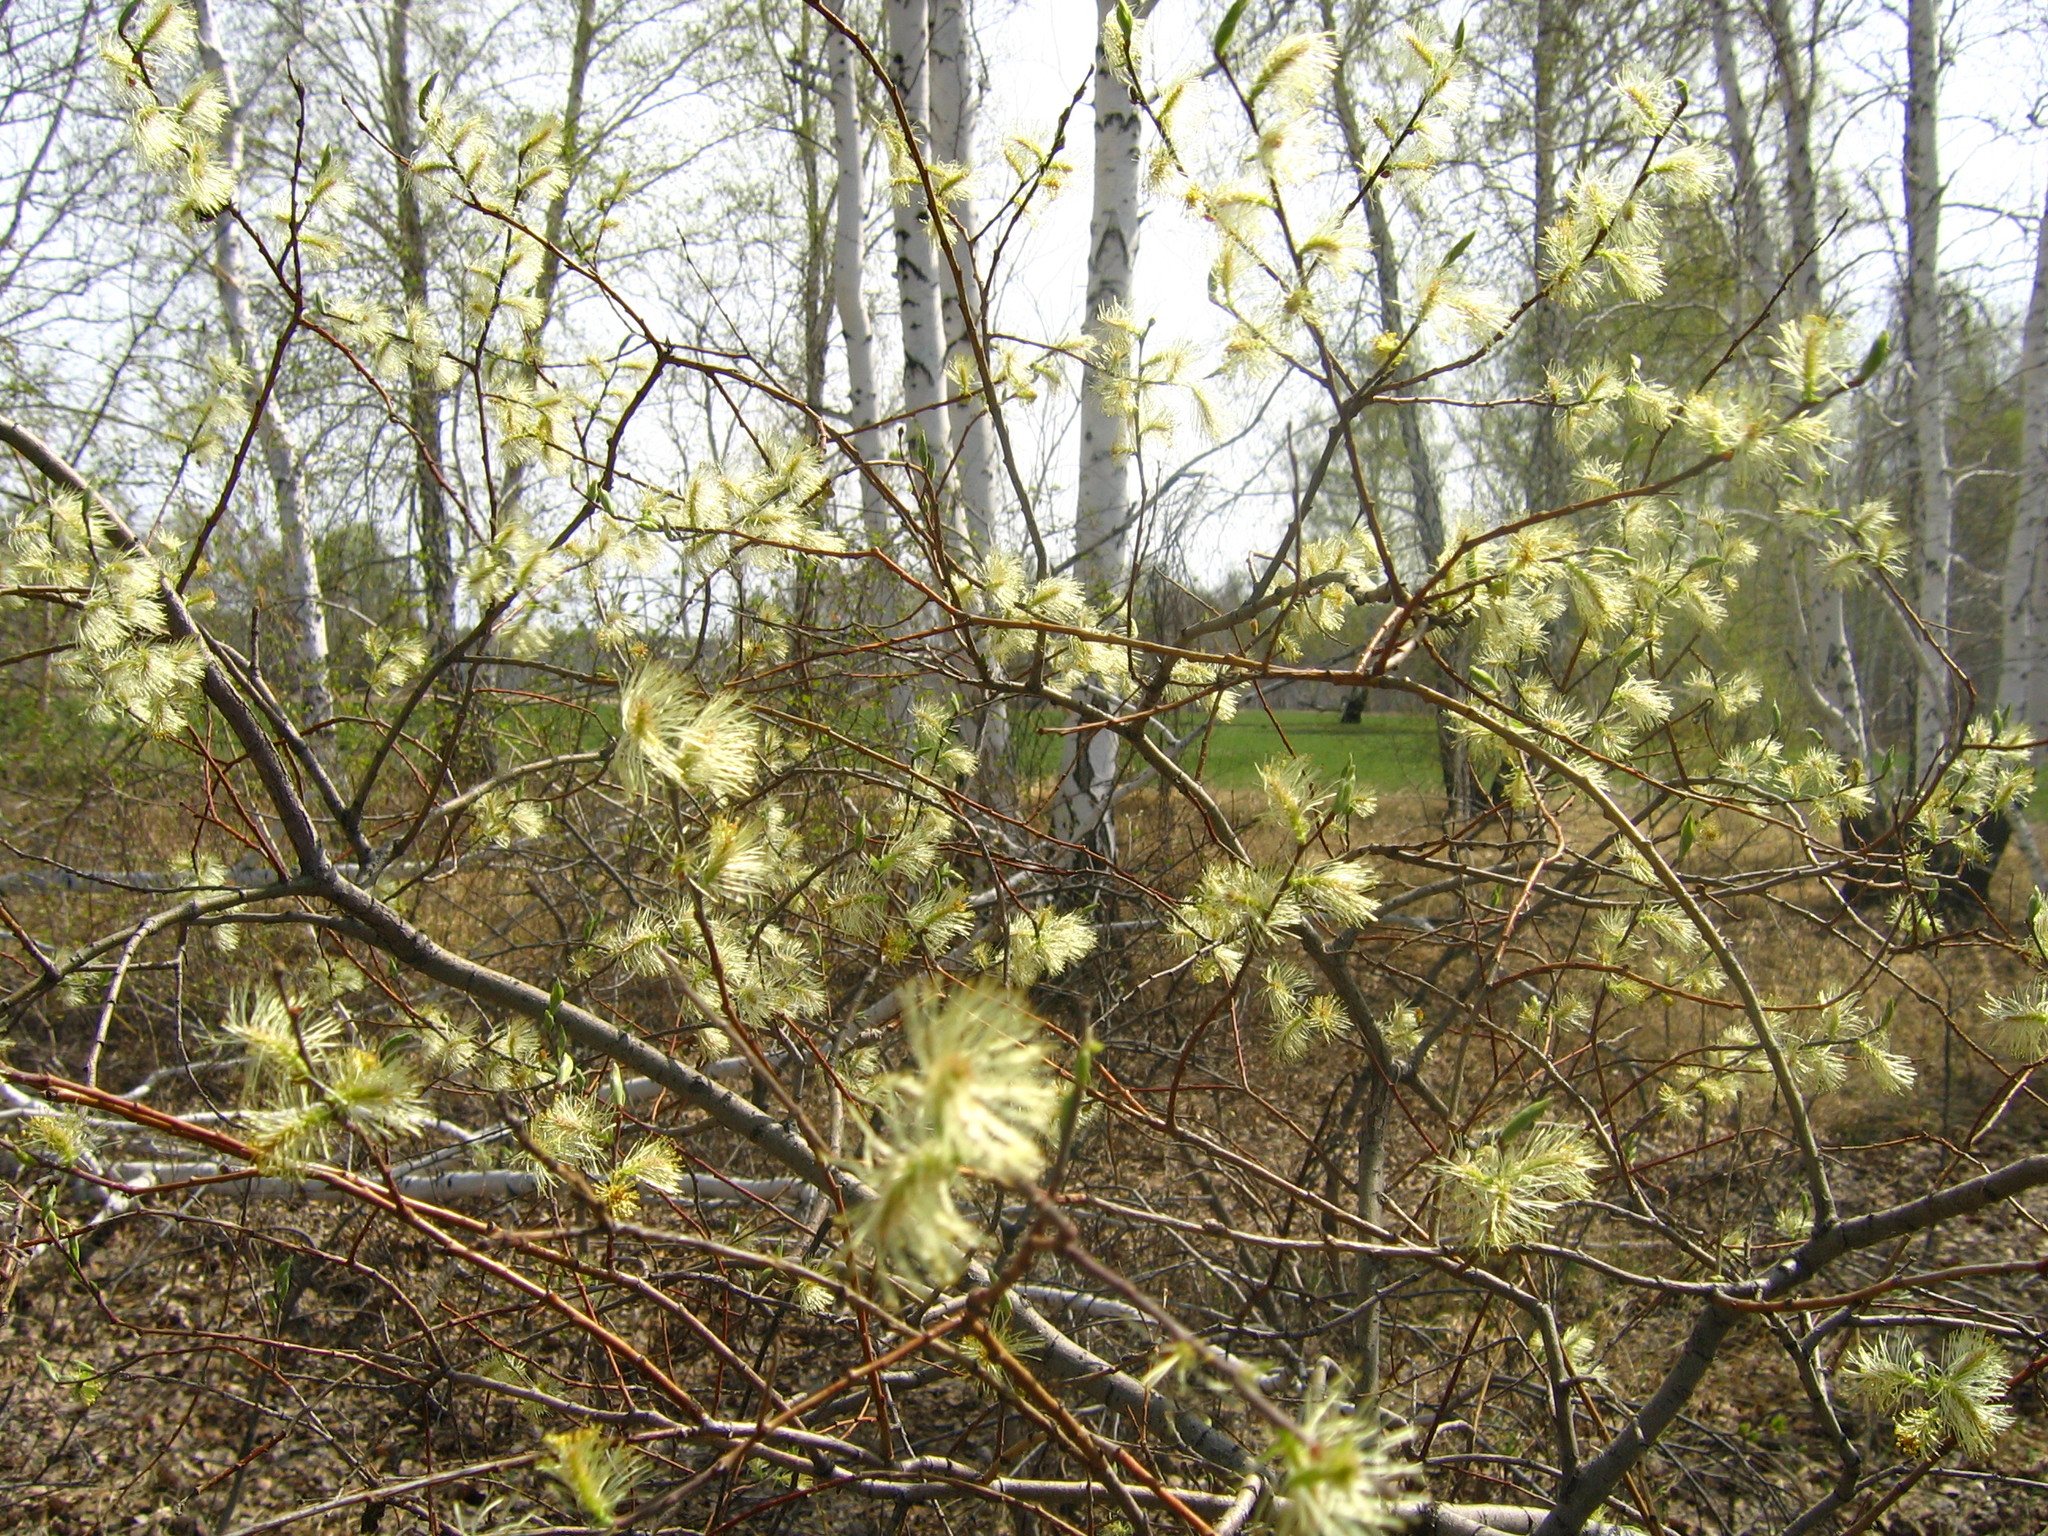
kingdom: Plantae
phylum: Tracheophyta
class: Magnoliopsida
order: Malpighiales
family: Salicaceae
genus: Salix
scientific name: Salix caprea
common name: Goat willow
